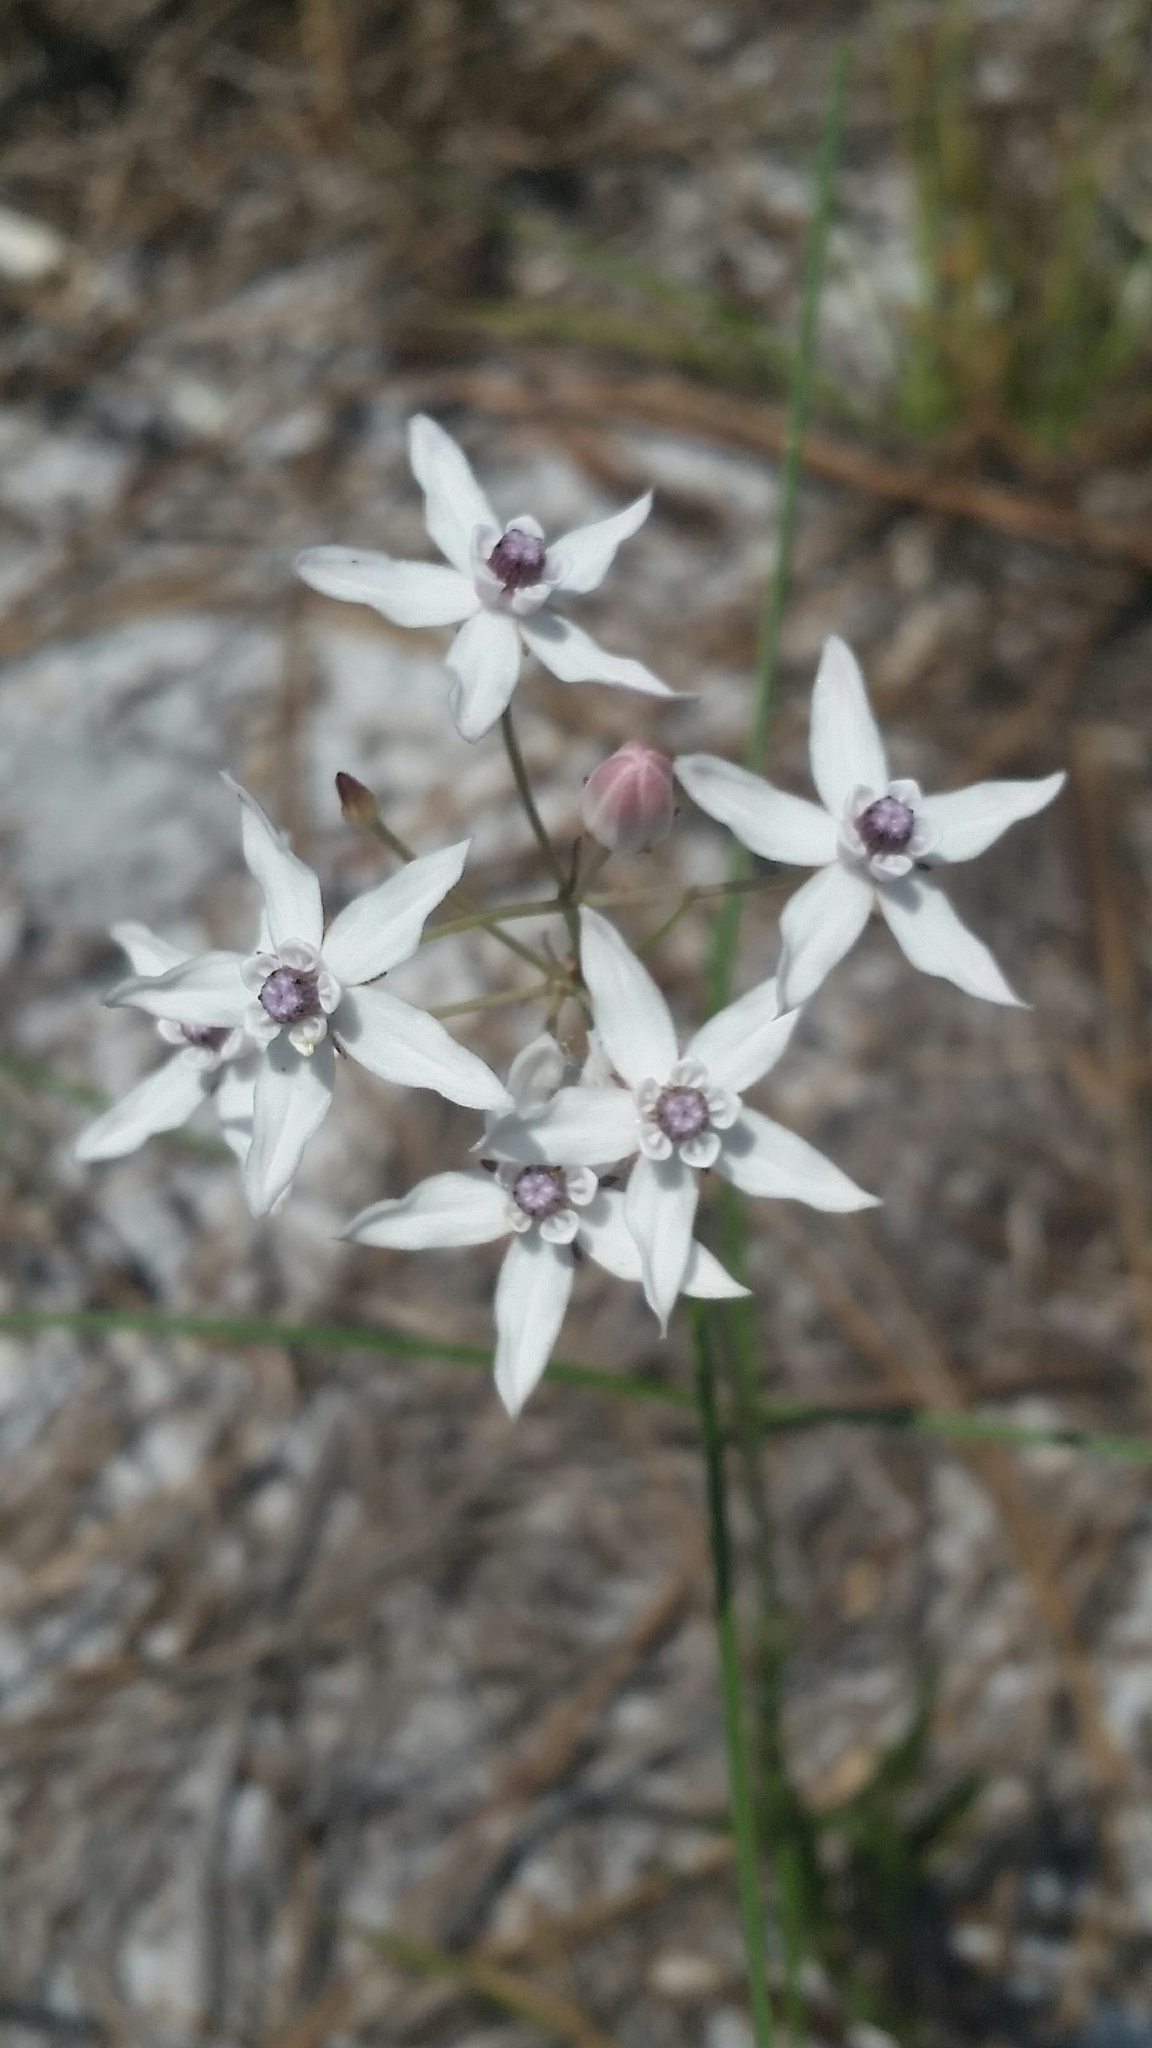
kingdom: Plantae
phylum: Tracheophyta
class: Magnoliopsida
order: Gentianales
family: Apocynaceae
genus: Asclepias
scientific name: Asclepias feayi
